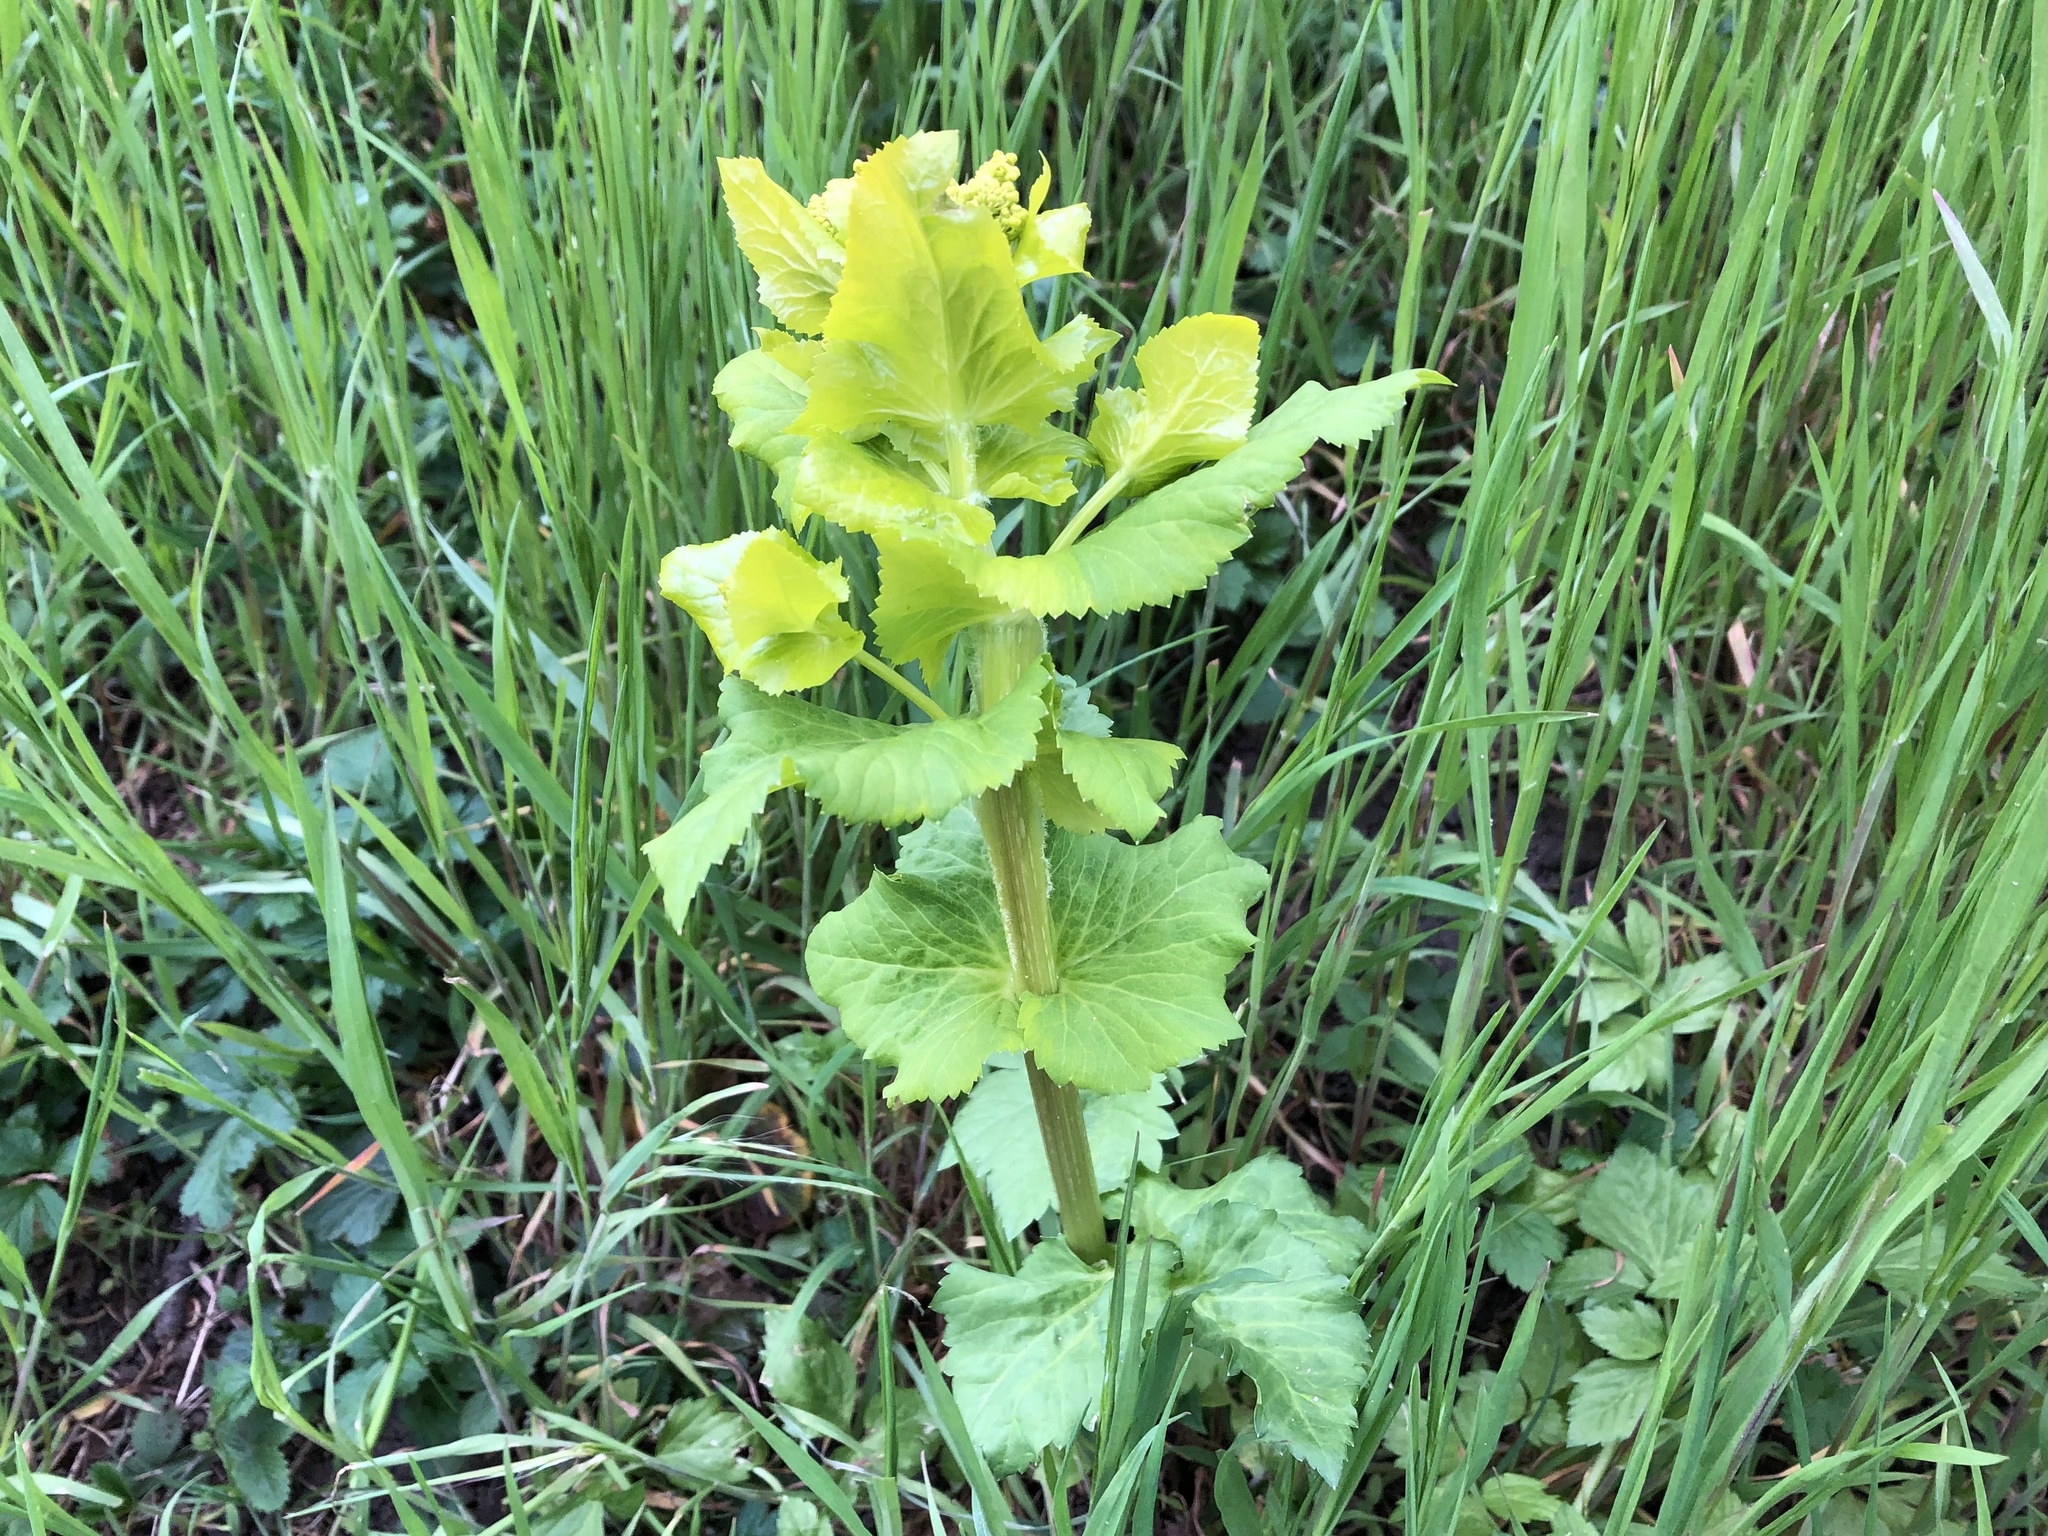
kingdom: Plantae
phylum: Tracheophyta
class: Magnoliopsida
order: Apiales
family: Apiaceae
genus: Smyrnium
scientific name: Smyrnium perfoliatum
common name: Perfoliate alexanders
